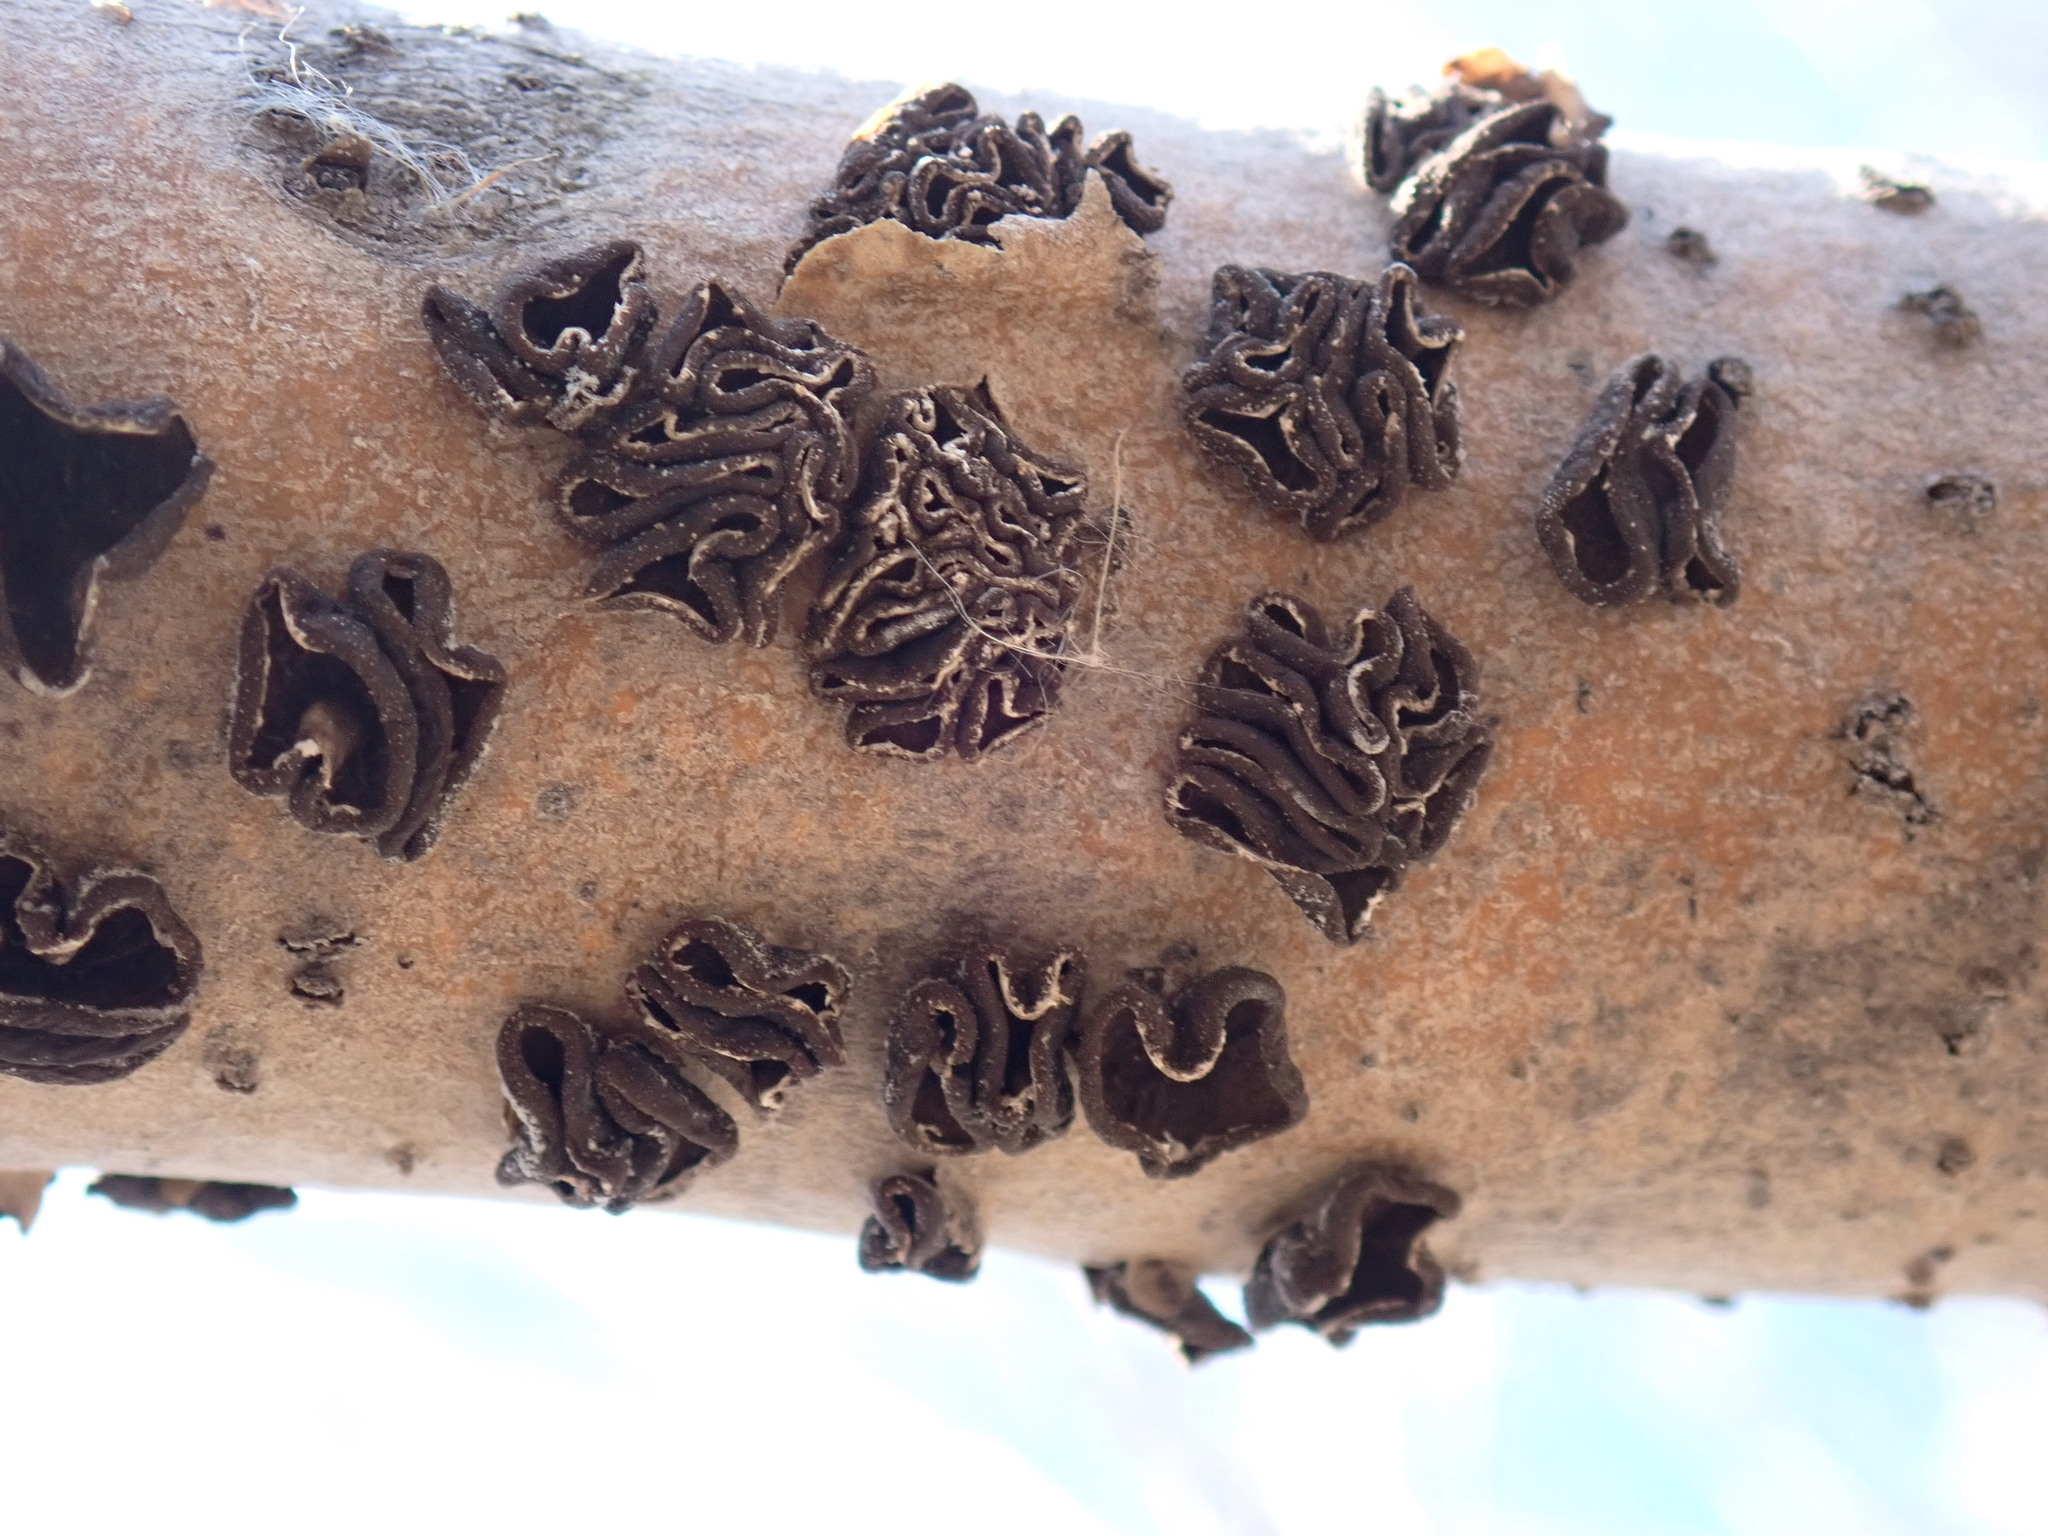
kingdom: Fungi
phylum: Ascomycota
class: Leotiomycetes
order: Helotiales
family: Sclerotiniaceae
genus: Sclerencoelia
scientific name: Sclerencoelia fascicularis
